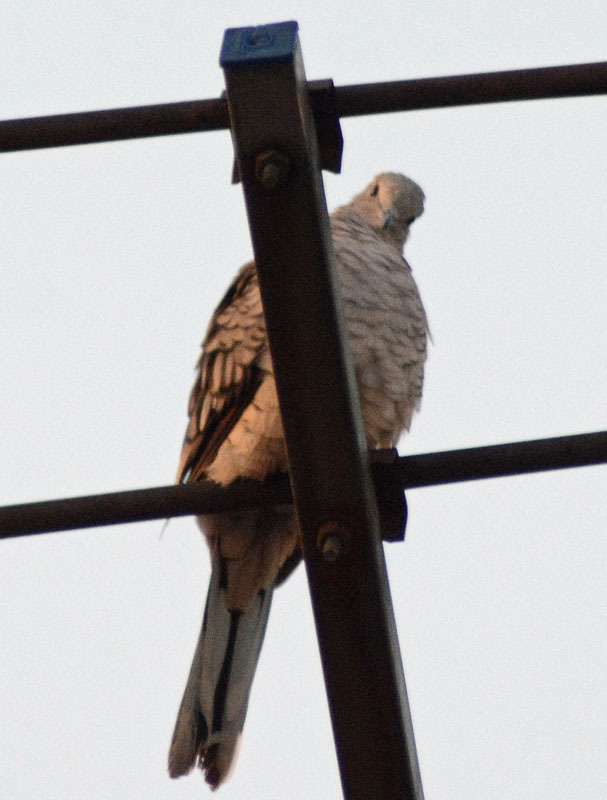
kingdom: Animalia
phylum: Chordata
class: Aves
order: Columbiformes
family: Columbidae
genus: Columbina
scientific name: Columbina inca
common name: Inca dove
